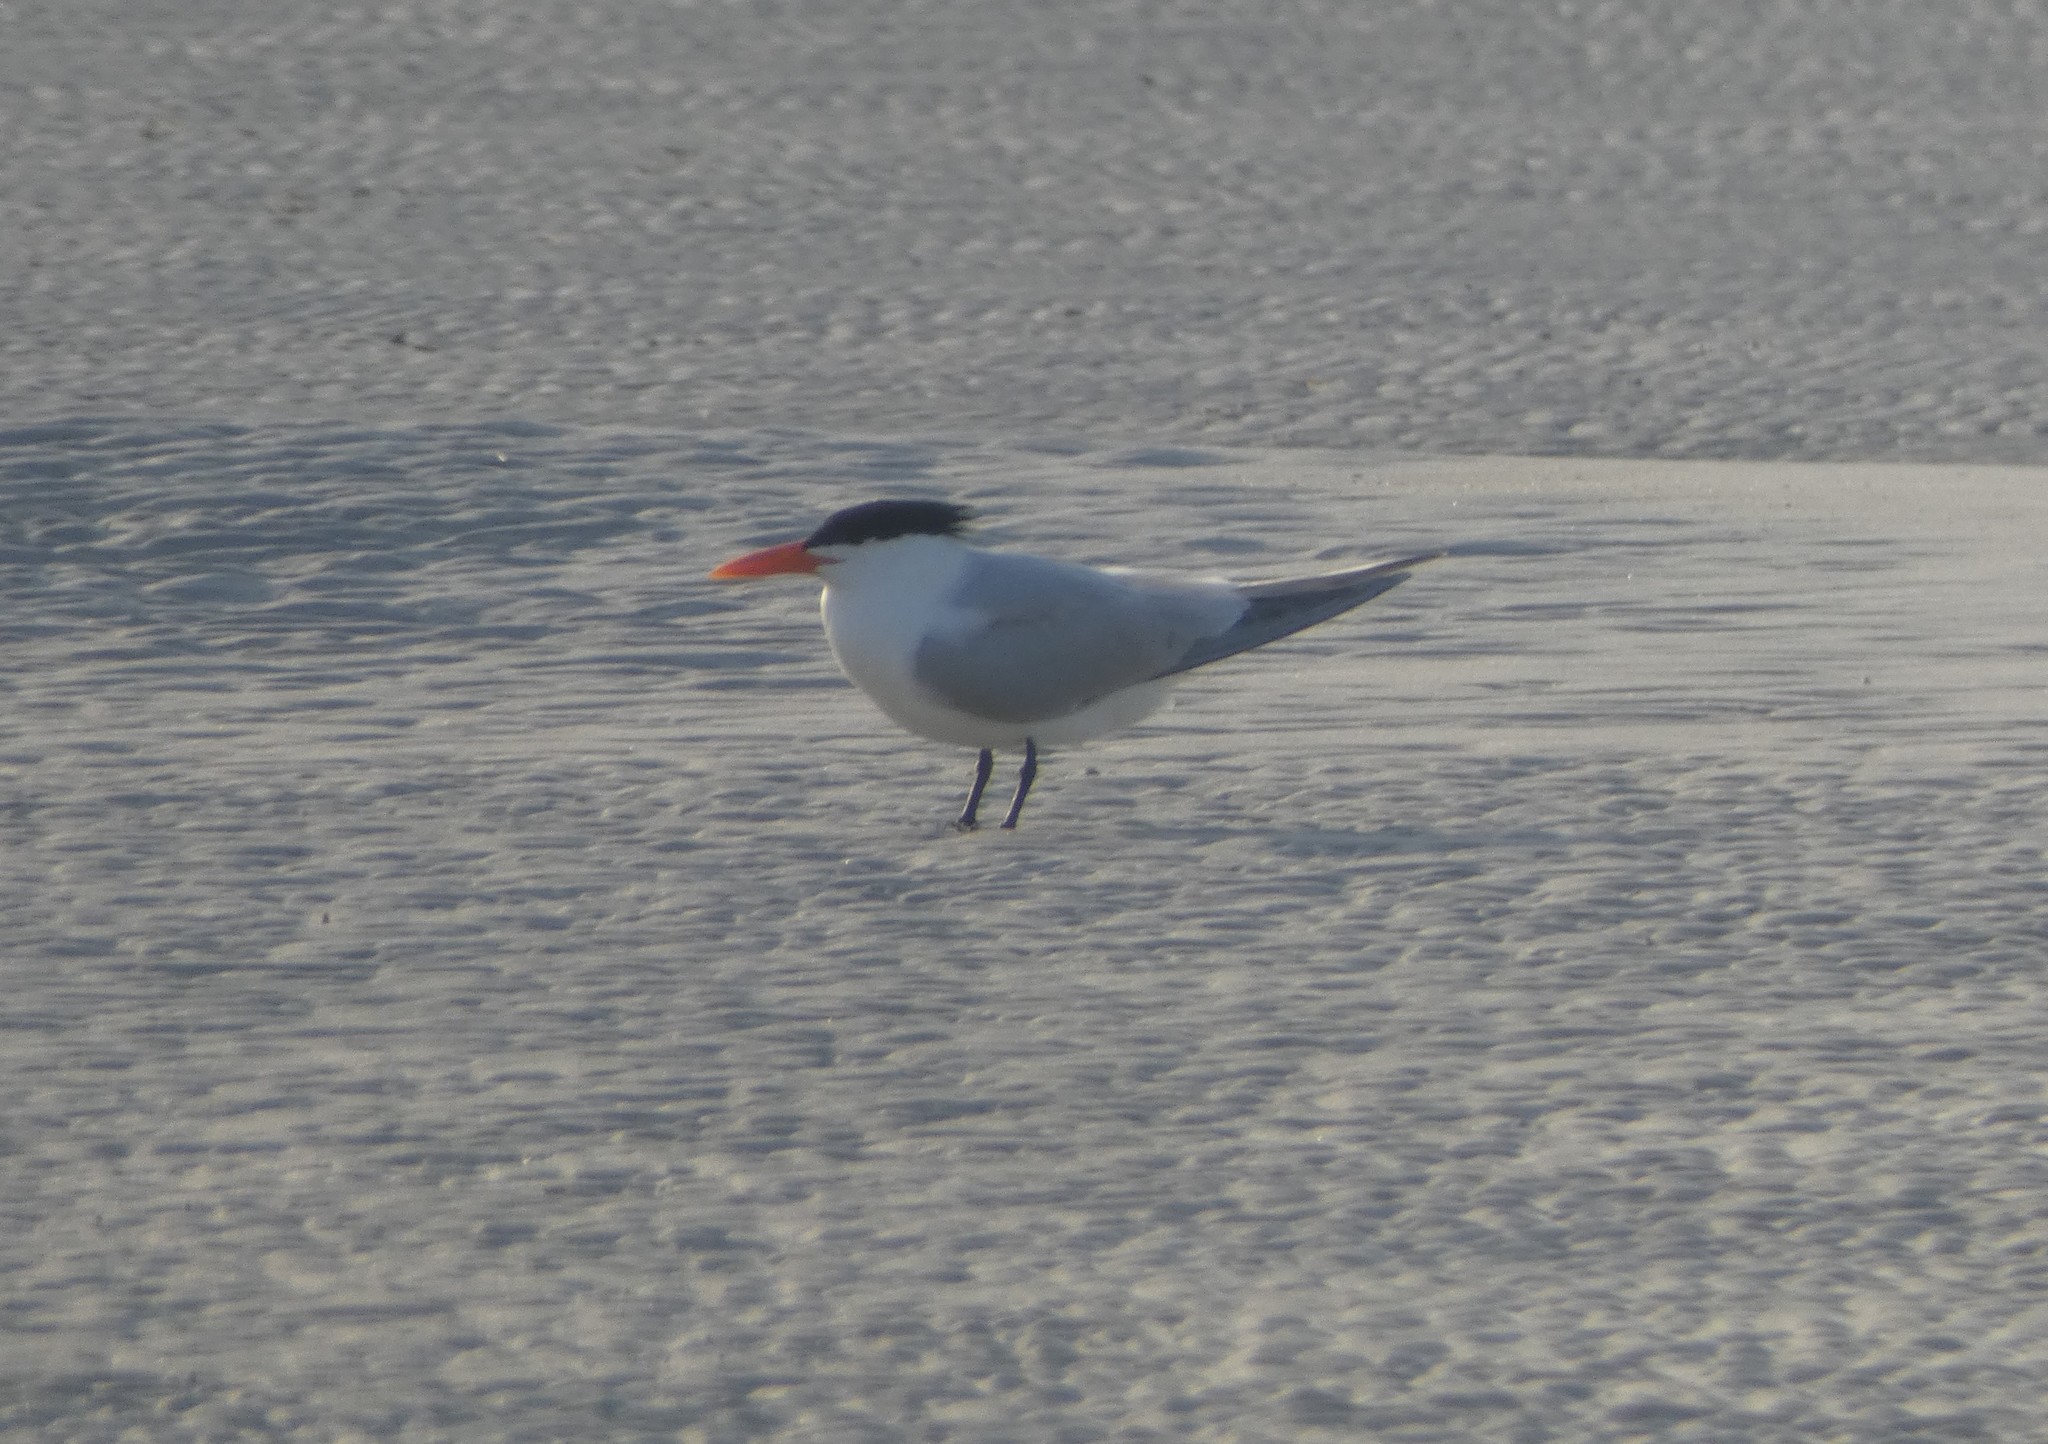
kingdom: Animalia
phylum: Chordata
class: Aves
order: Charadriiformes
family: Laridae
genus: Thalasseus
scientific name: Thalasseus maximus
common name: Royal tern
